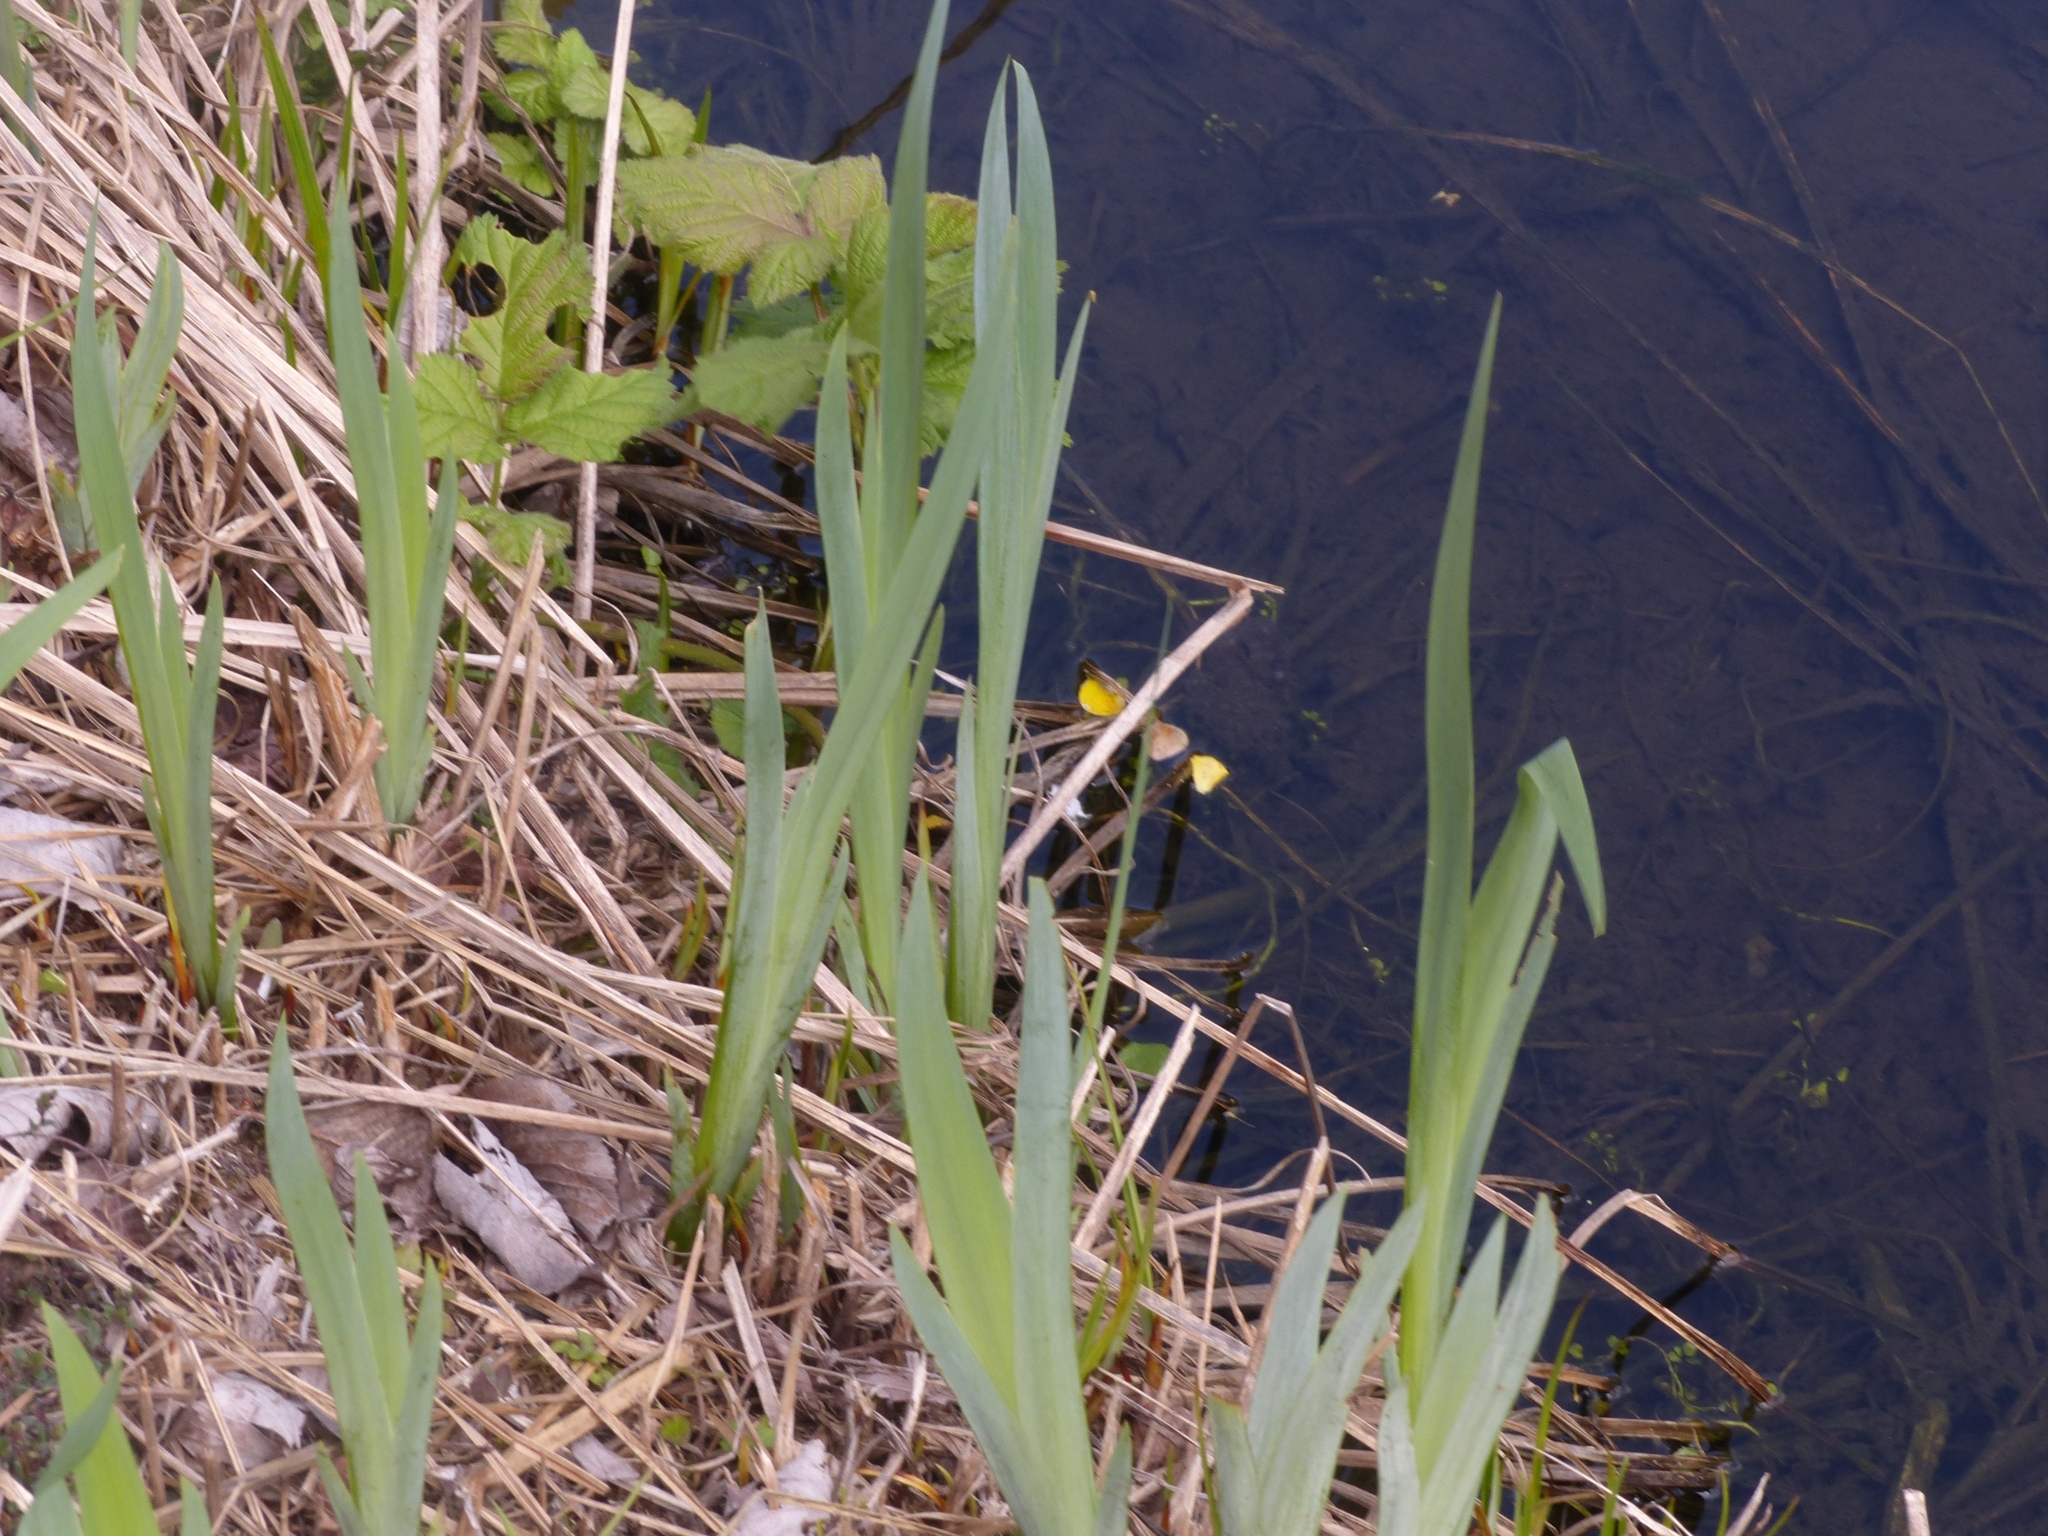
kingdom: Plantae
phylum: Tracheophyta
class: Liliopsida
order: Asparagales
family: Iridaceae
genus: Iris
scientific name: Iris pseudacorus
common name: Yellow flag
